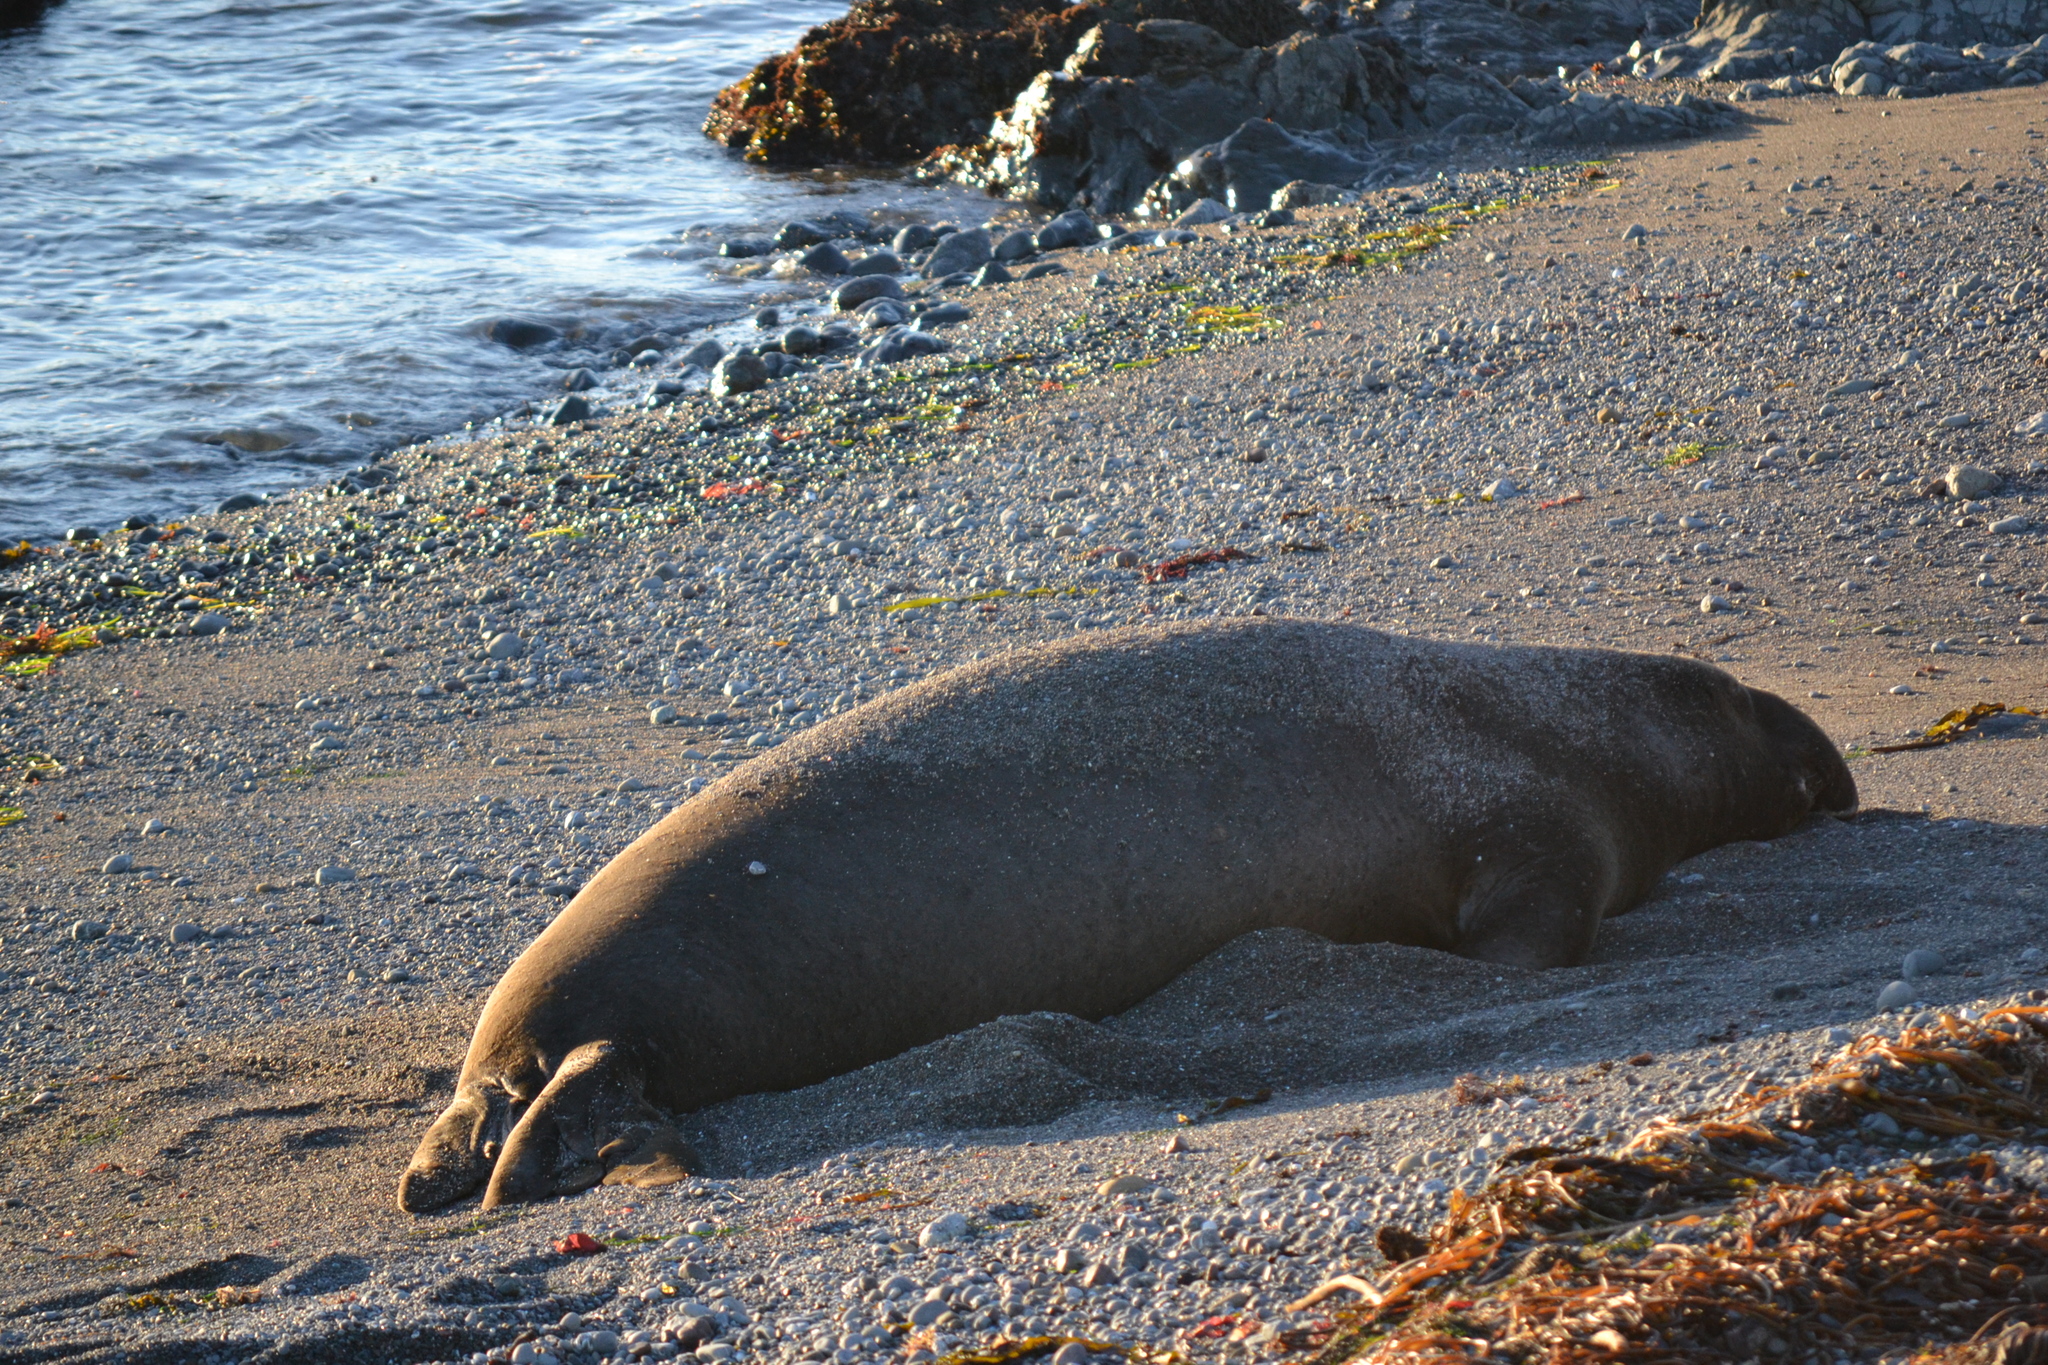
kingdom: Animalia
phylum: Chordata
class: Mammalia
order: Carnivora
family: Phocidae
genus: Mirounga
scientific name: Mirounga angustirostris
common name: Northern elephant seal
